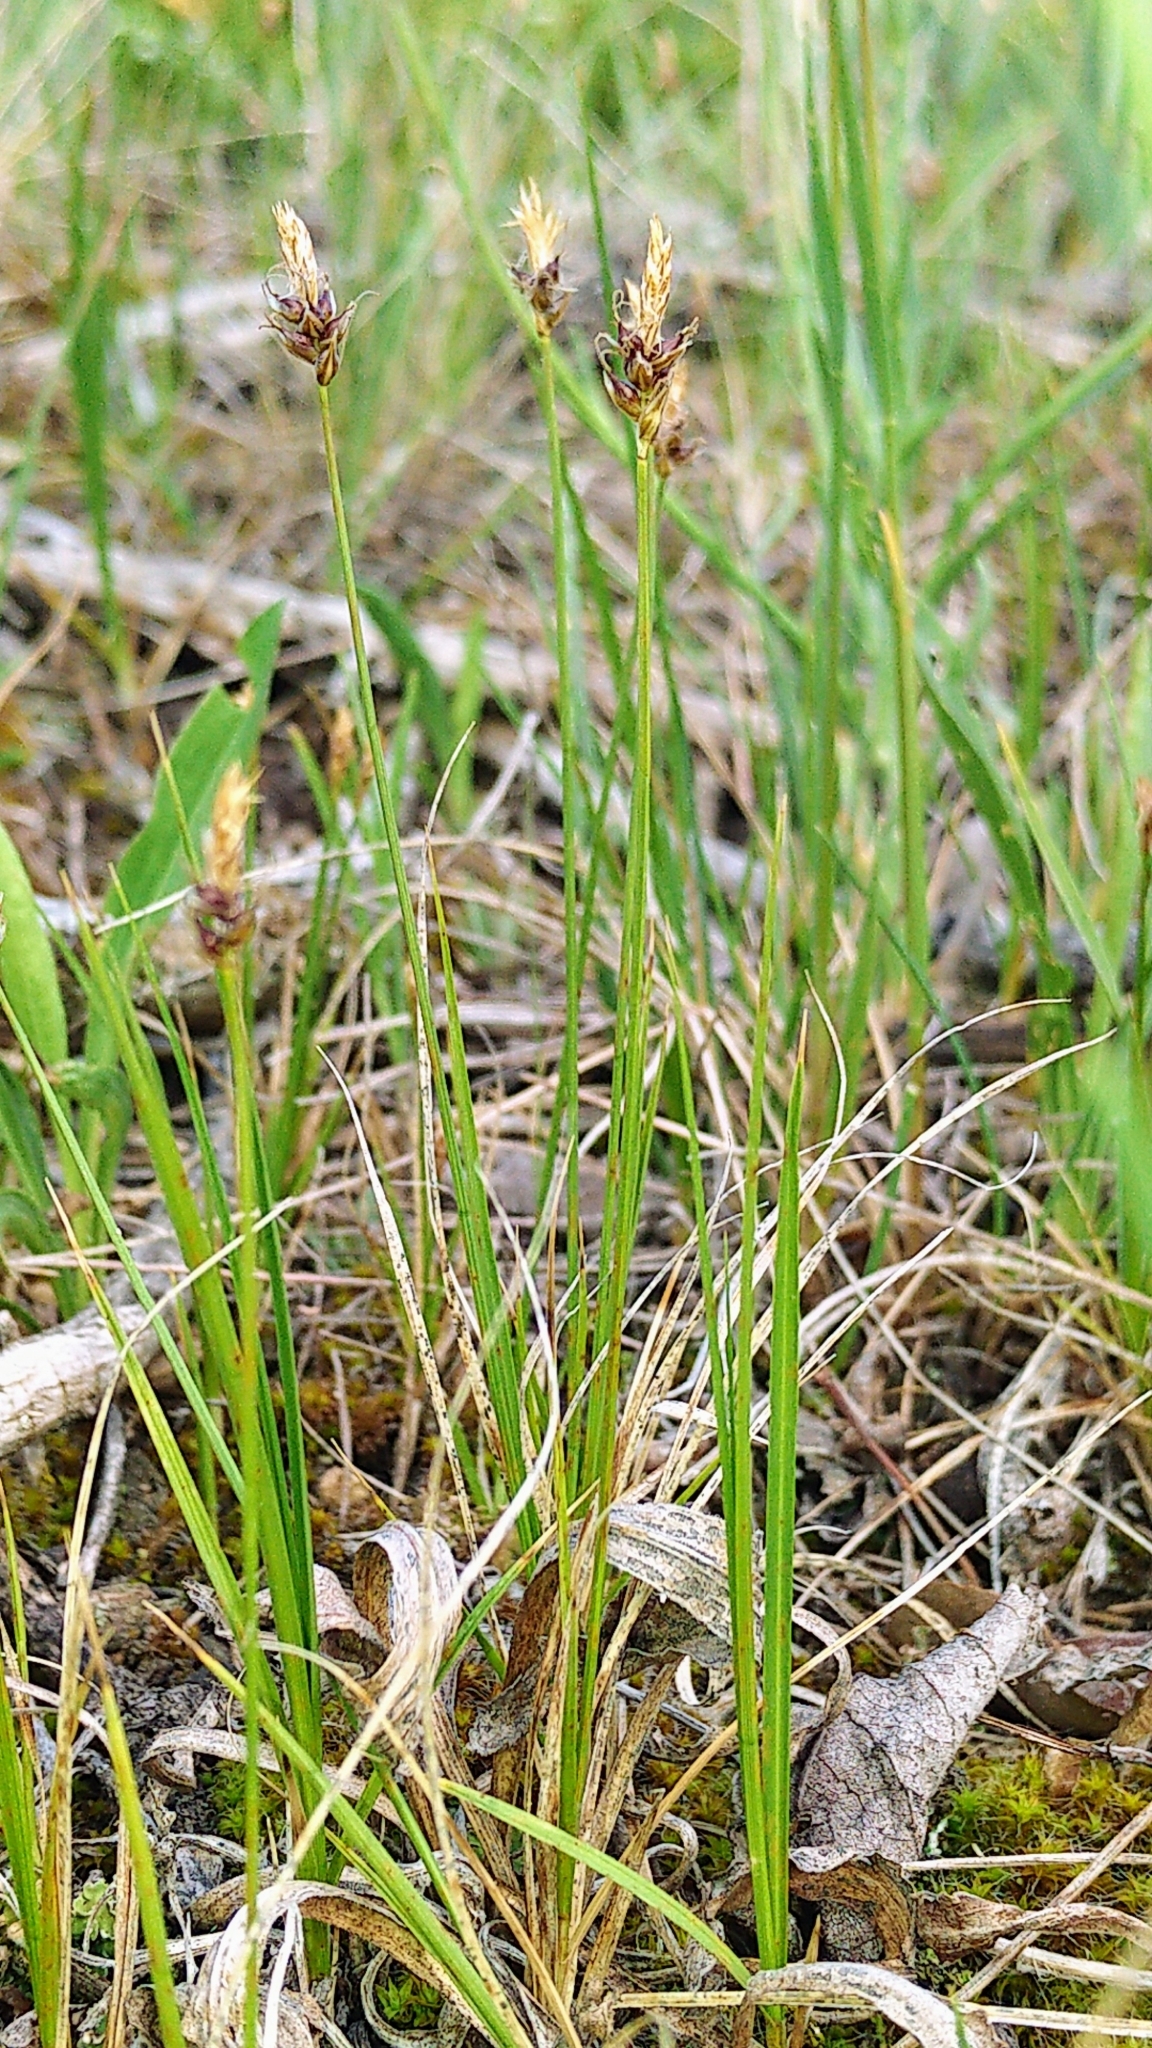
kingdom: Plantae
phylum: Tracheophyta
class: Liliopsida
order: Poales
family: Cyperaceae
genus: Carex
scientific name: Carex obtusata
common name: Blunt sedge
